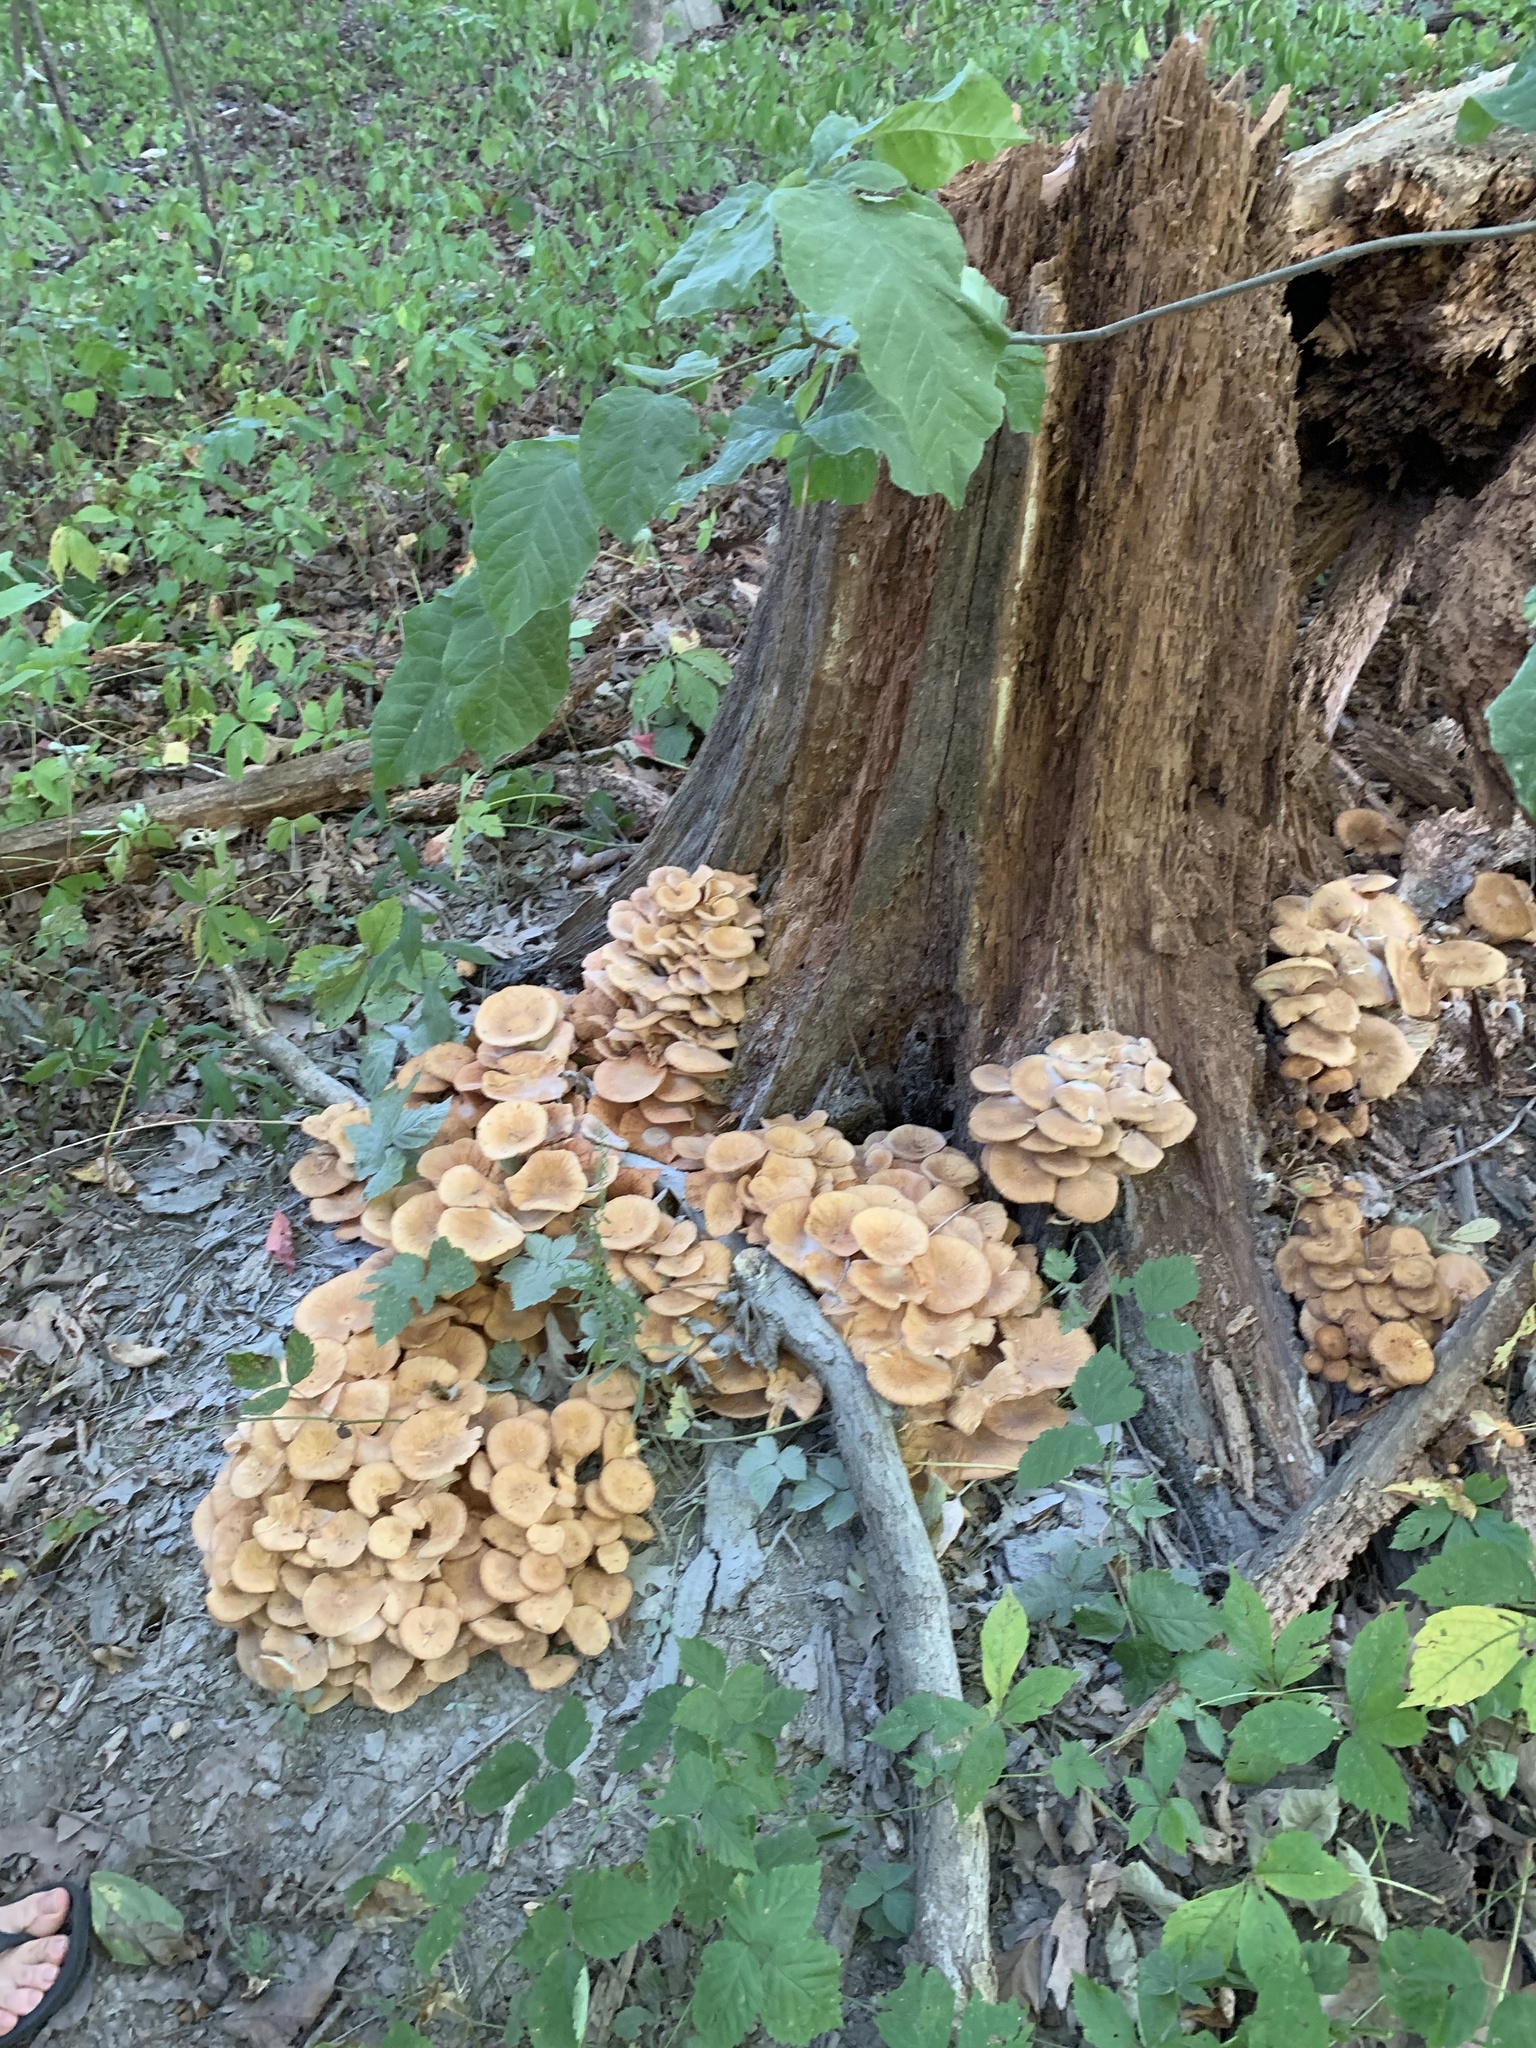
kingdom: Fungi
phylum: Basidiomycota
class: Agaricomycetes
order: Agaricales
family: Physalacriaceae
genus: Desarmillaria
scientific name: Desarmillaria caespitosa
